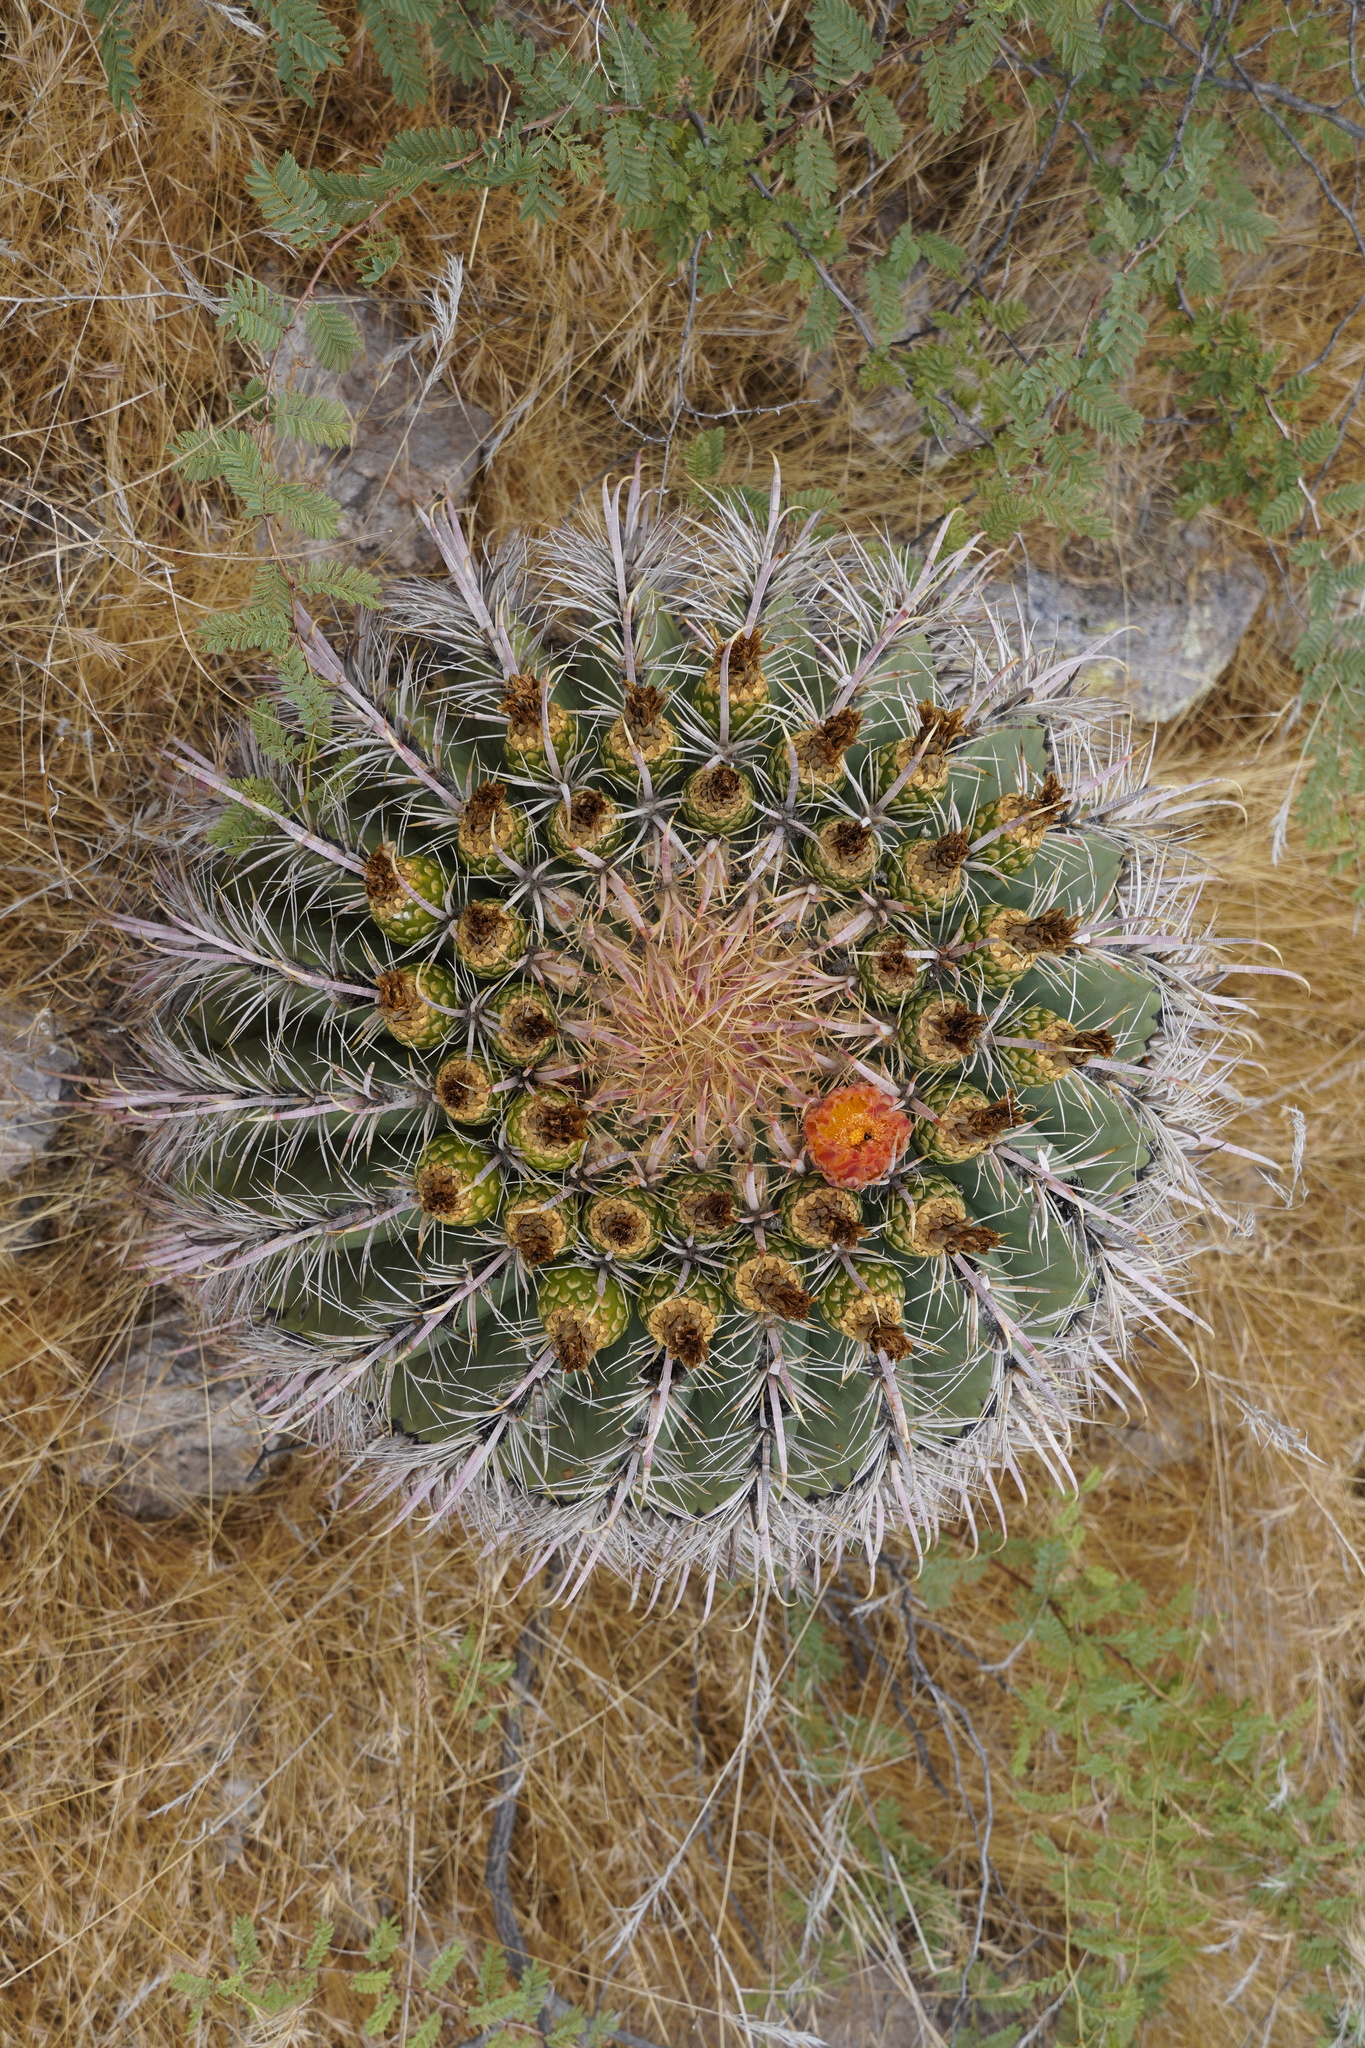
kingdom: Plantae
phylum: Tracheophyta
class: Magnoliopsida
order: Caryophyllales
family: Cactaceae
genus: Ferocactus
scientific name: Ferocactus wislizeni
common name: Candy barrel cactus
